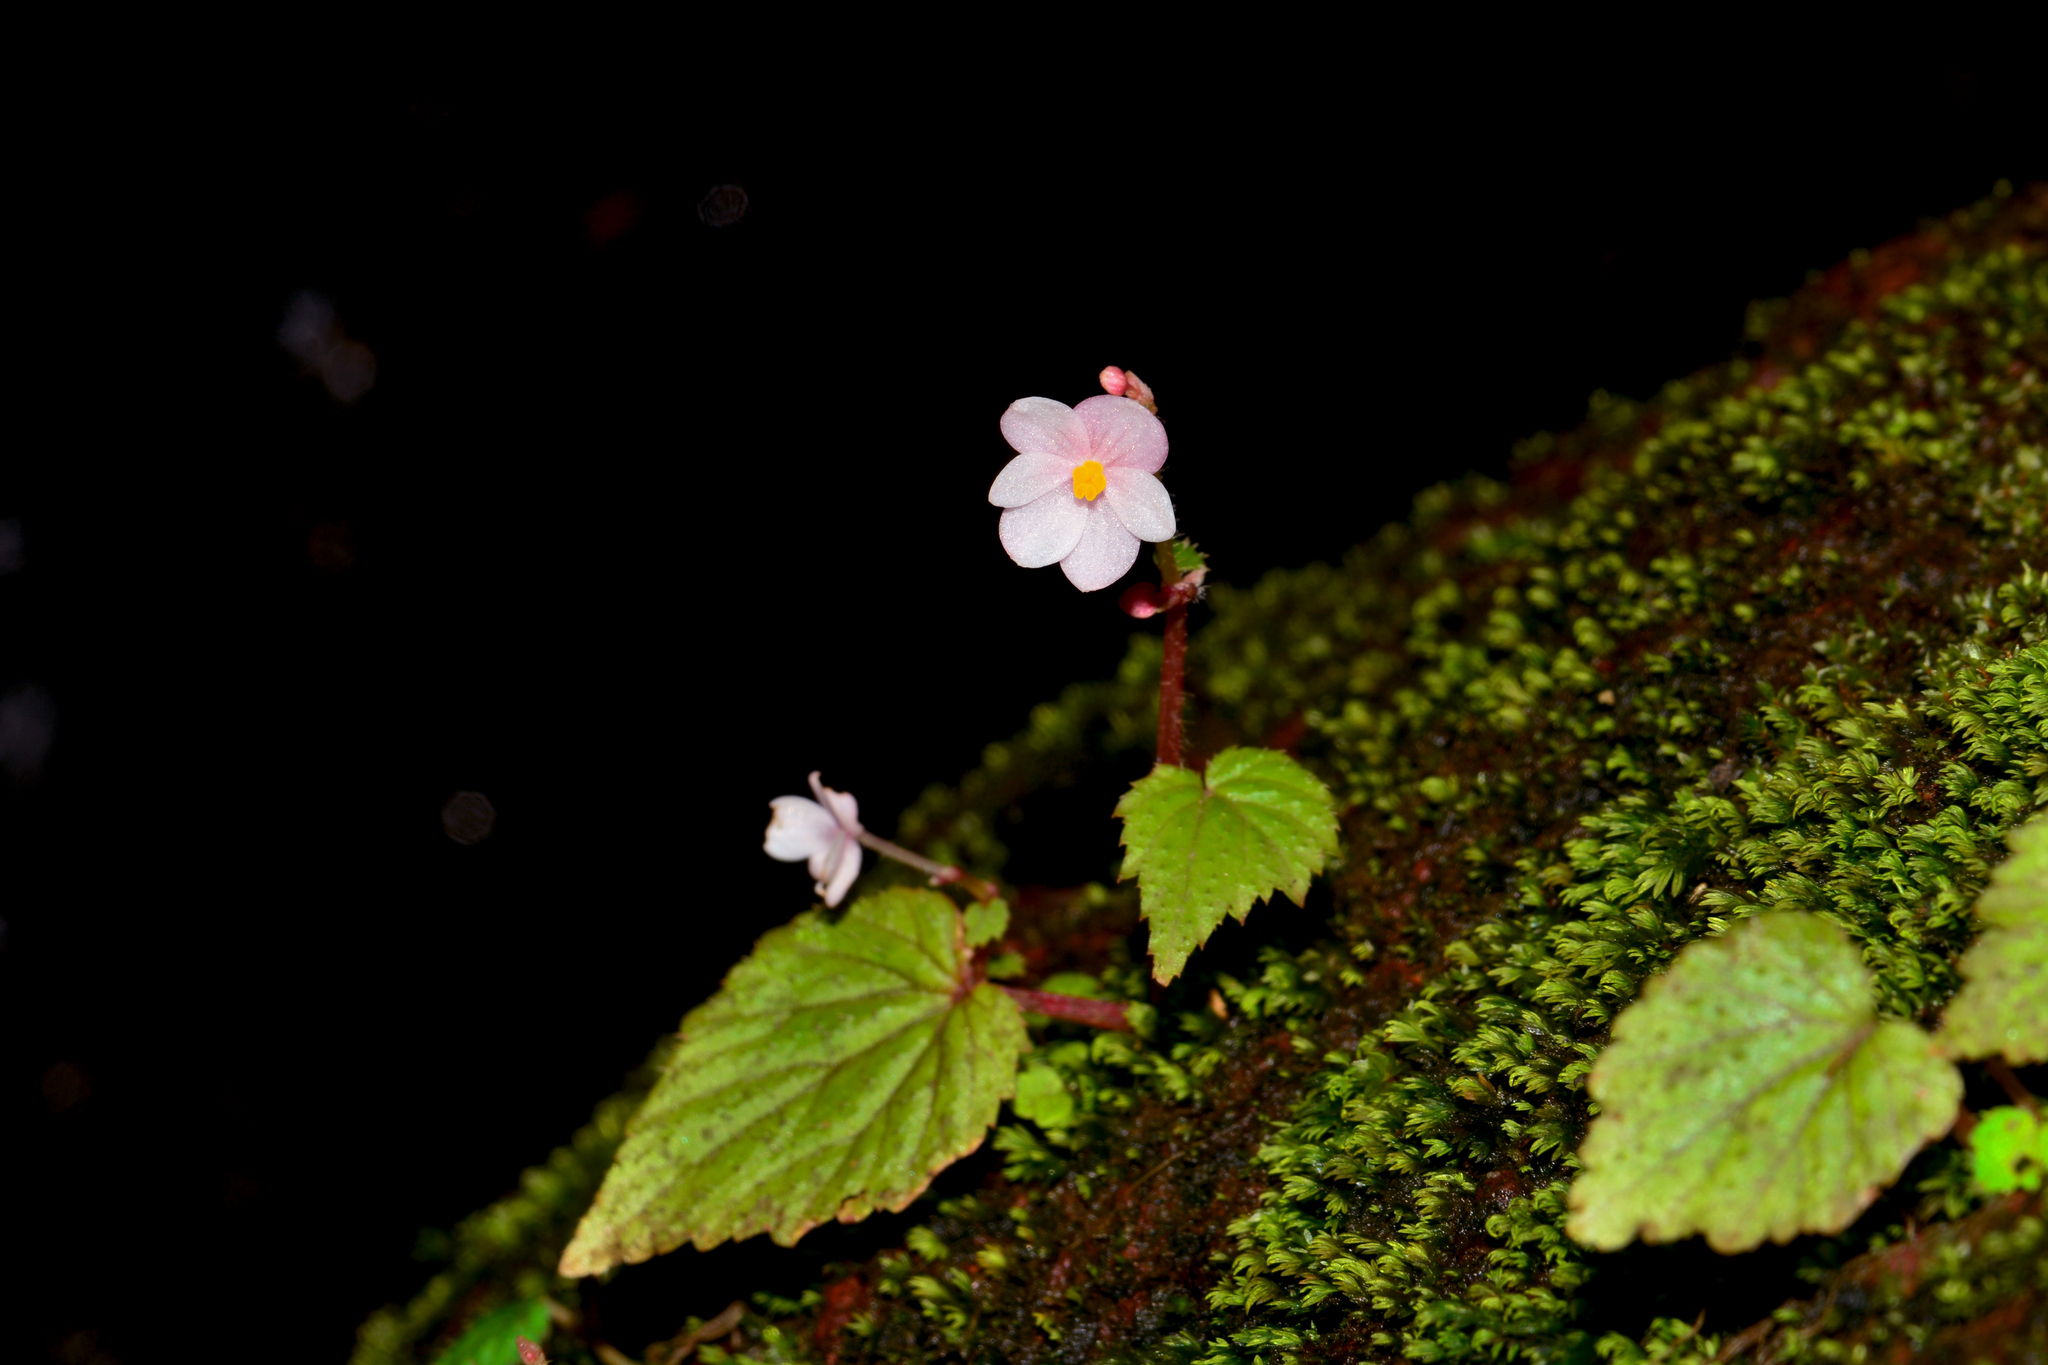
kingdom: Plantae
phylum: Tracheophyta
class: Magnoliopsida
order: Cucurbitales
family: Begoniaceae
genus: Begonia
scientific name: Begonia crenata
